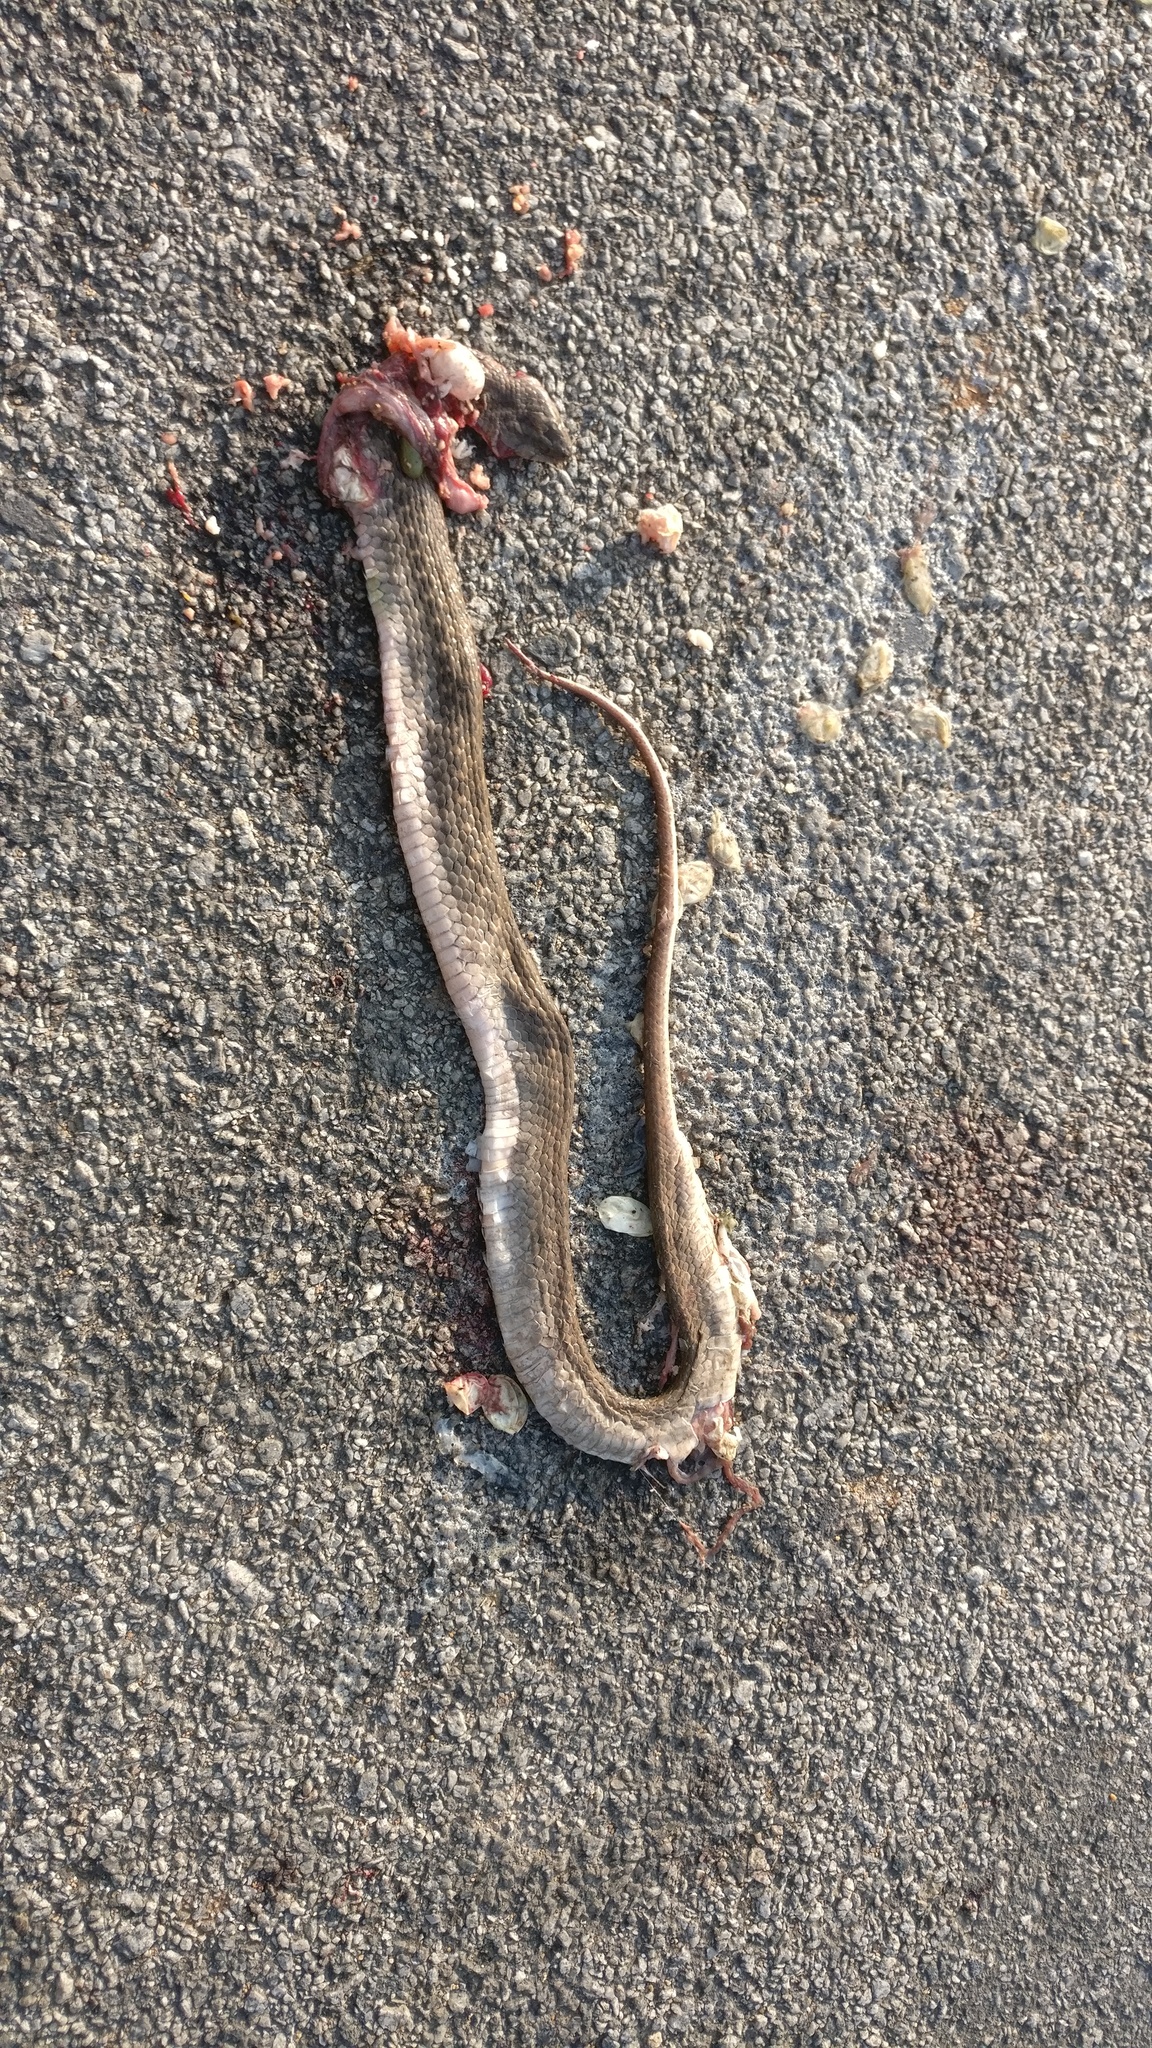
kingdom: Animalia
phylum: Chordata
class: Squamata
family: Colubridae
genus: Fowlea
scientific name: Fowlea piscator
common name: Asiatic water snake
